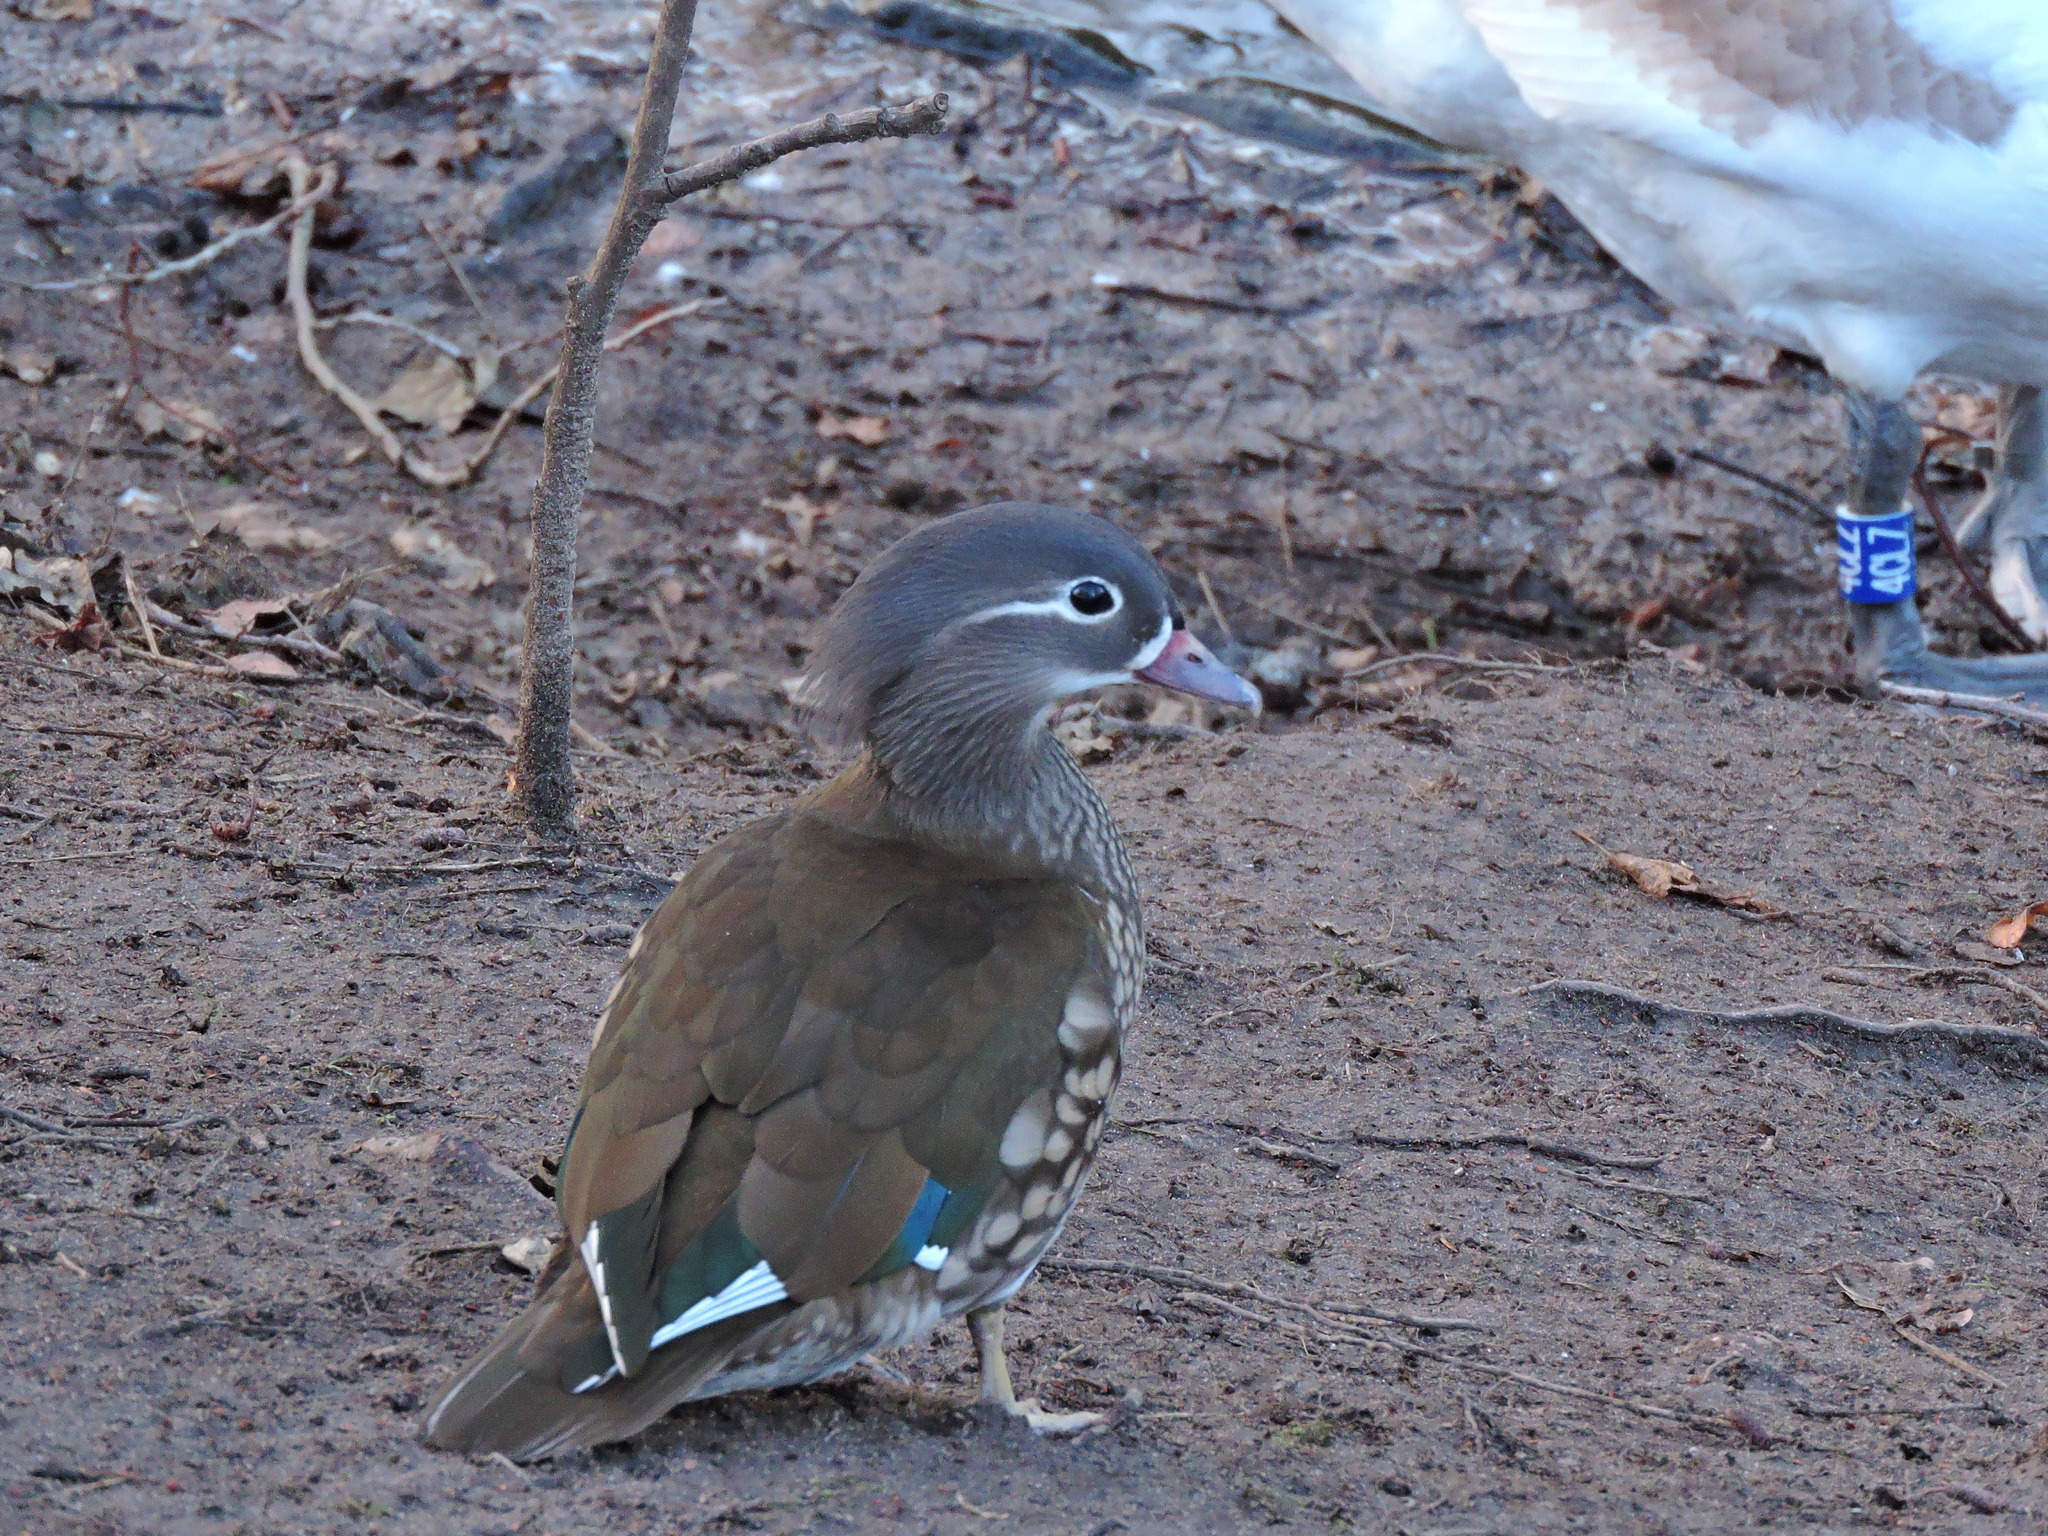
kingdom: Animalia
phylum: Chordata
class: Aves
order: Anseriformes
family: Anatidae
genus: Aix
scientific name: Aix galericulata
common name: Mandarin duck
